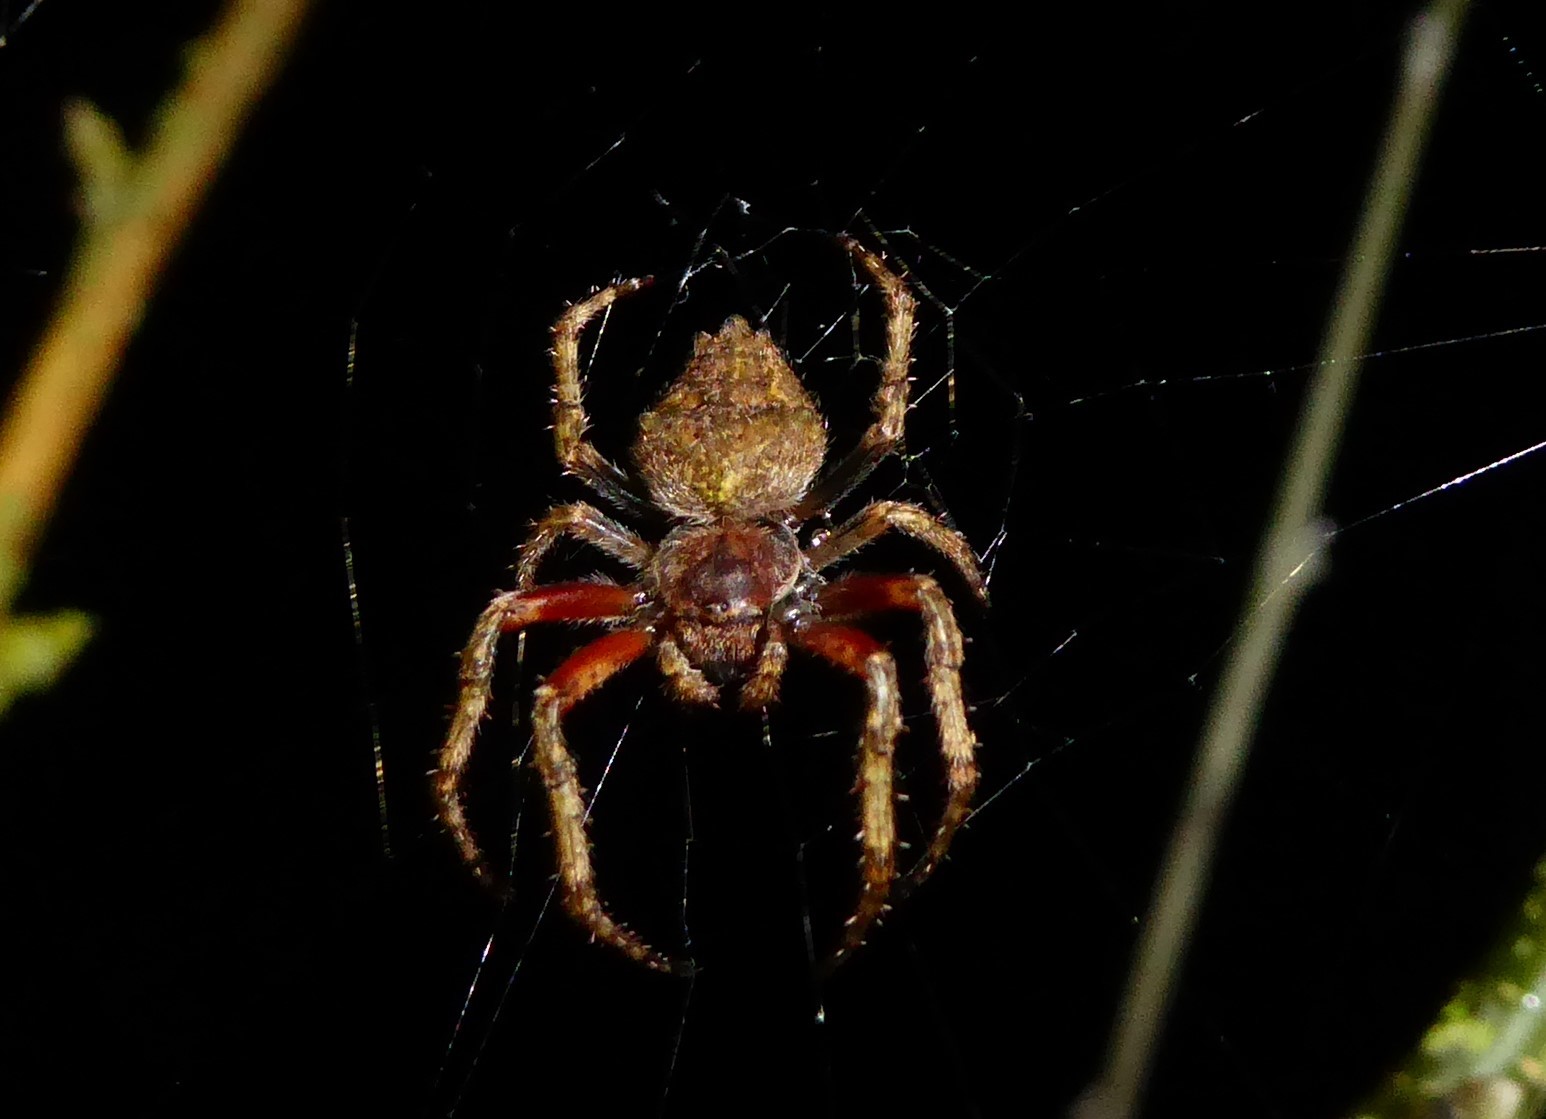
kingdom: Animalia
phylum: Arthropoda
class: Arachnida
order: Araneae
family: Araneidae
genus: Eriophora
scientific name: Eriophora pustulosa
